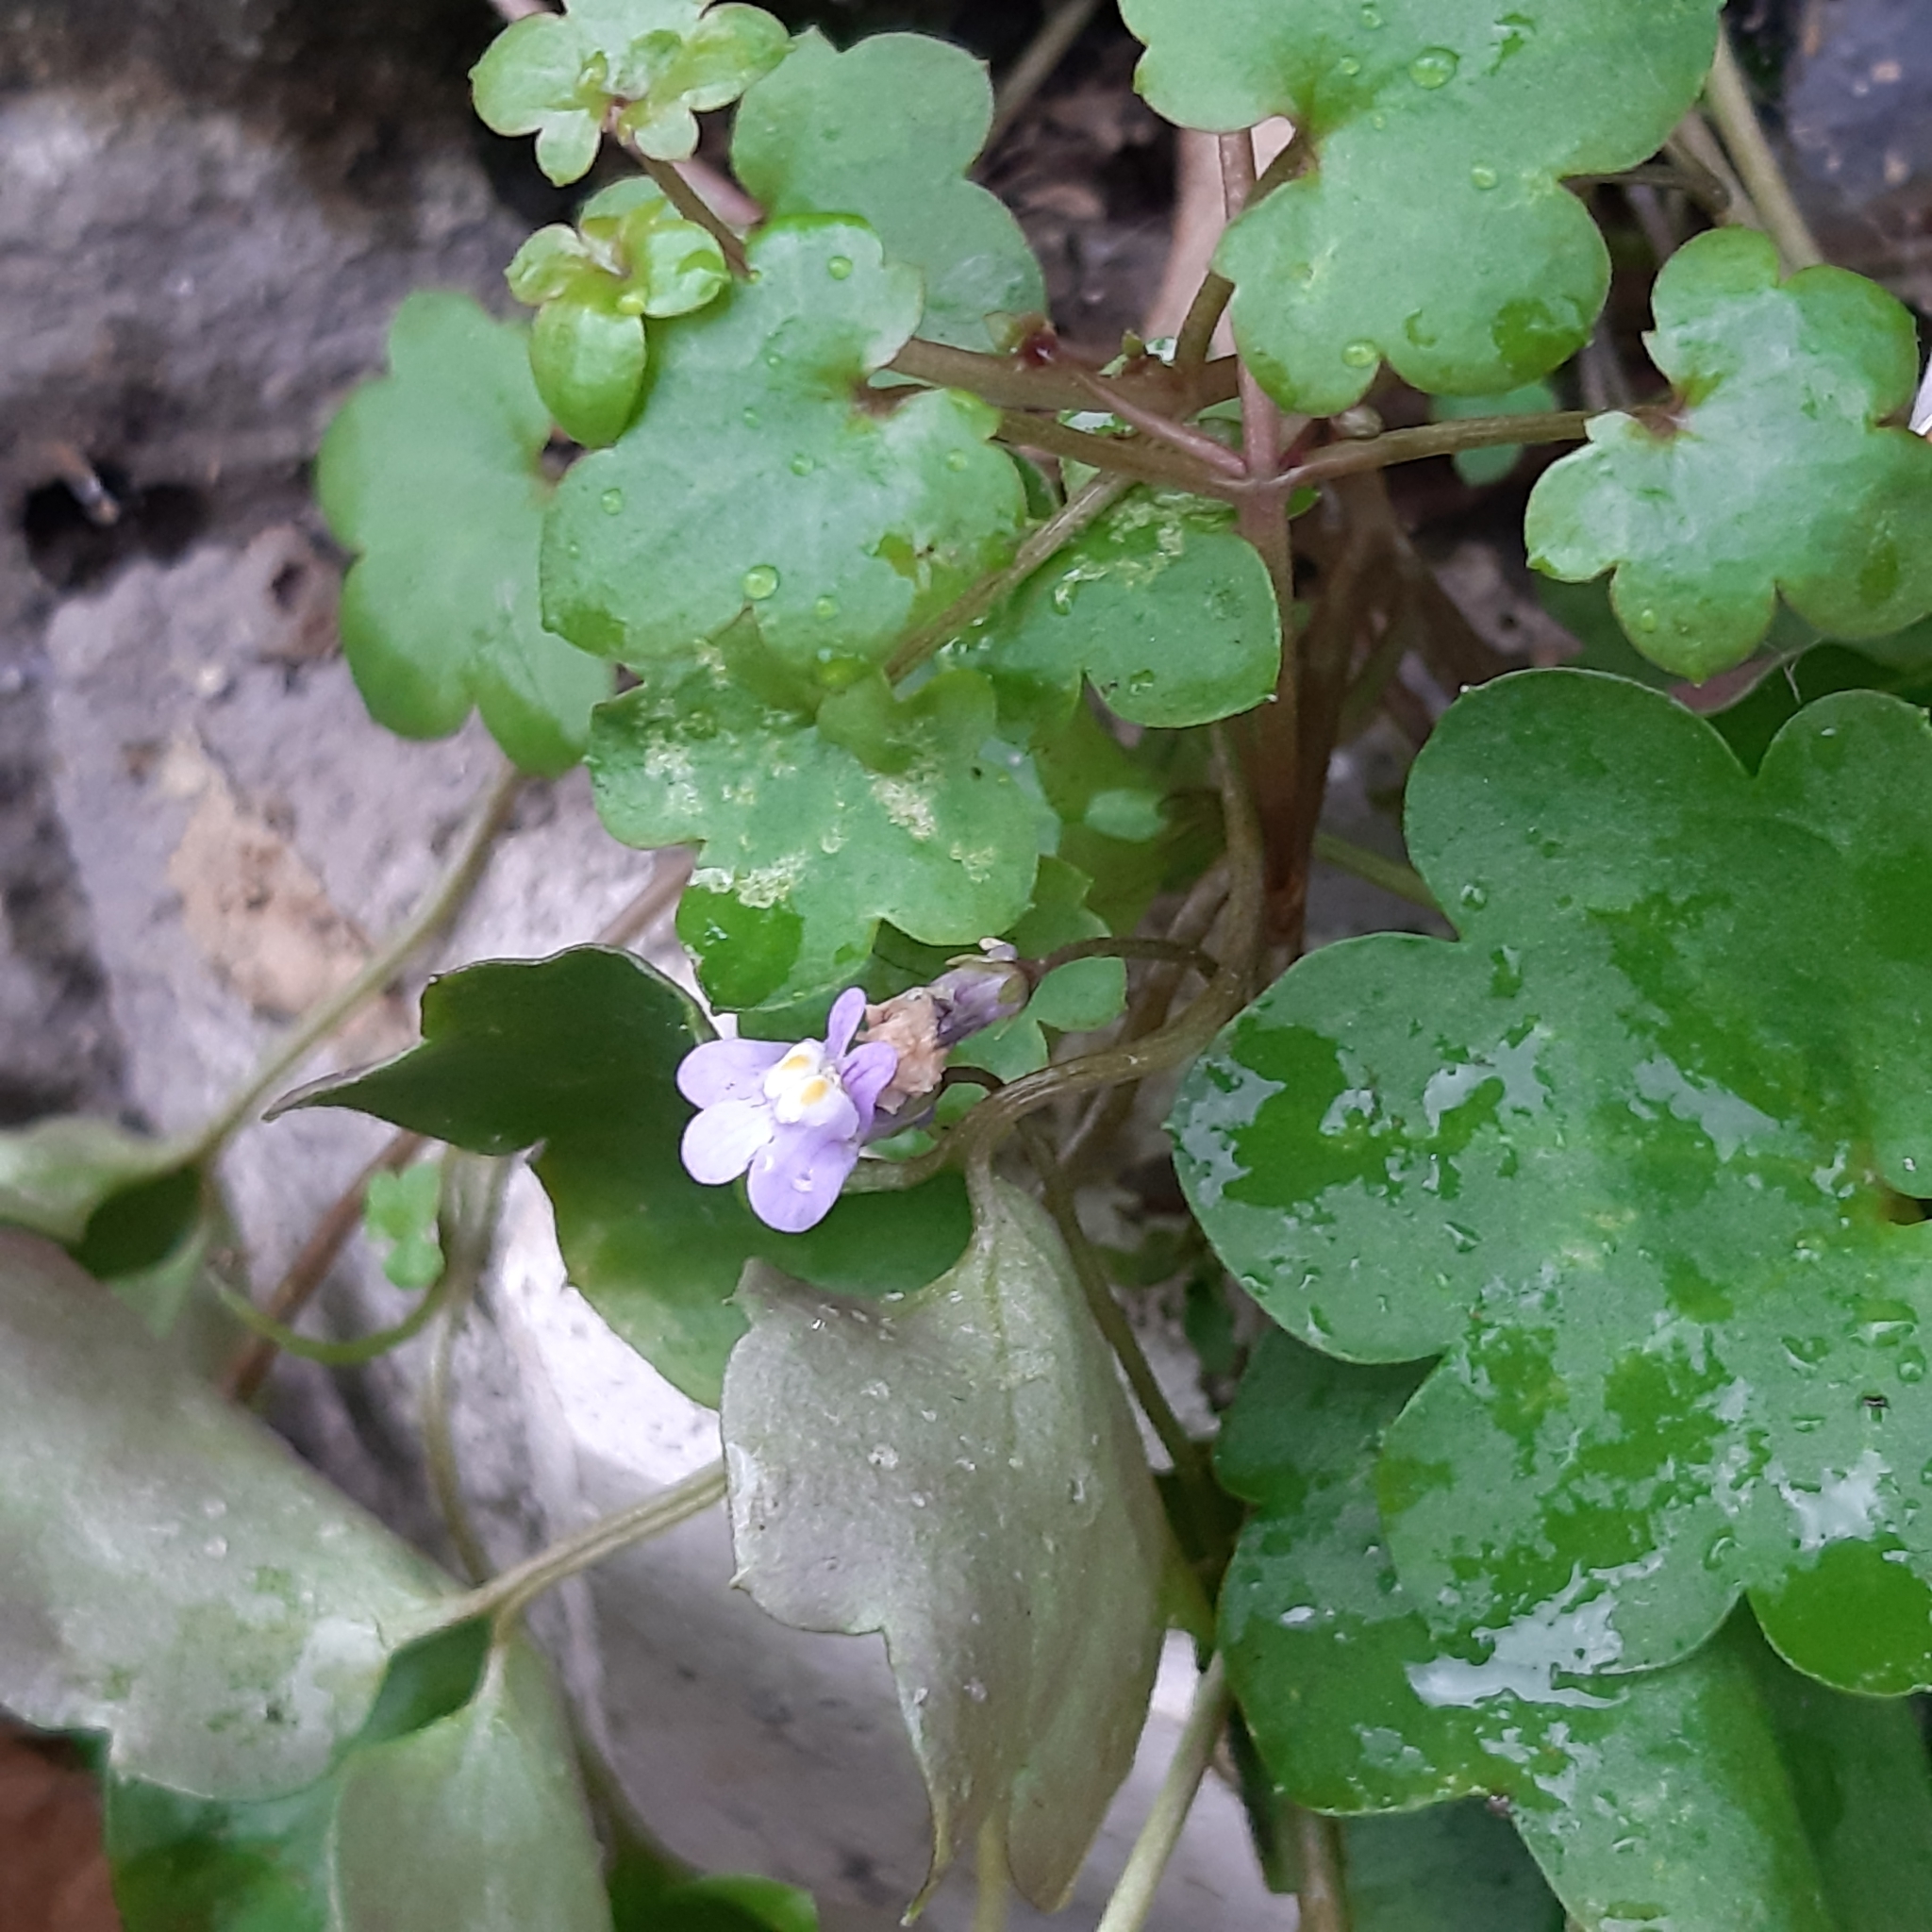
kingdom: Plantae
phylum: Tracheophyta
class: Magnoliopsida
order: Lamiales
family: Plantaginaceae
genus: Cymbalaria
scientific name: Cymbalaria muralis
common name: Ivy-leaved toadflax
